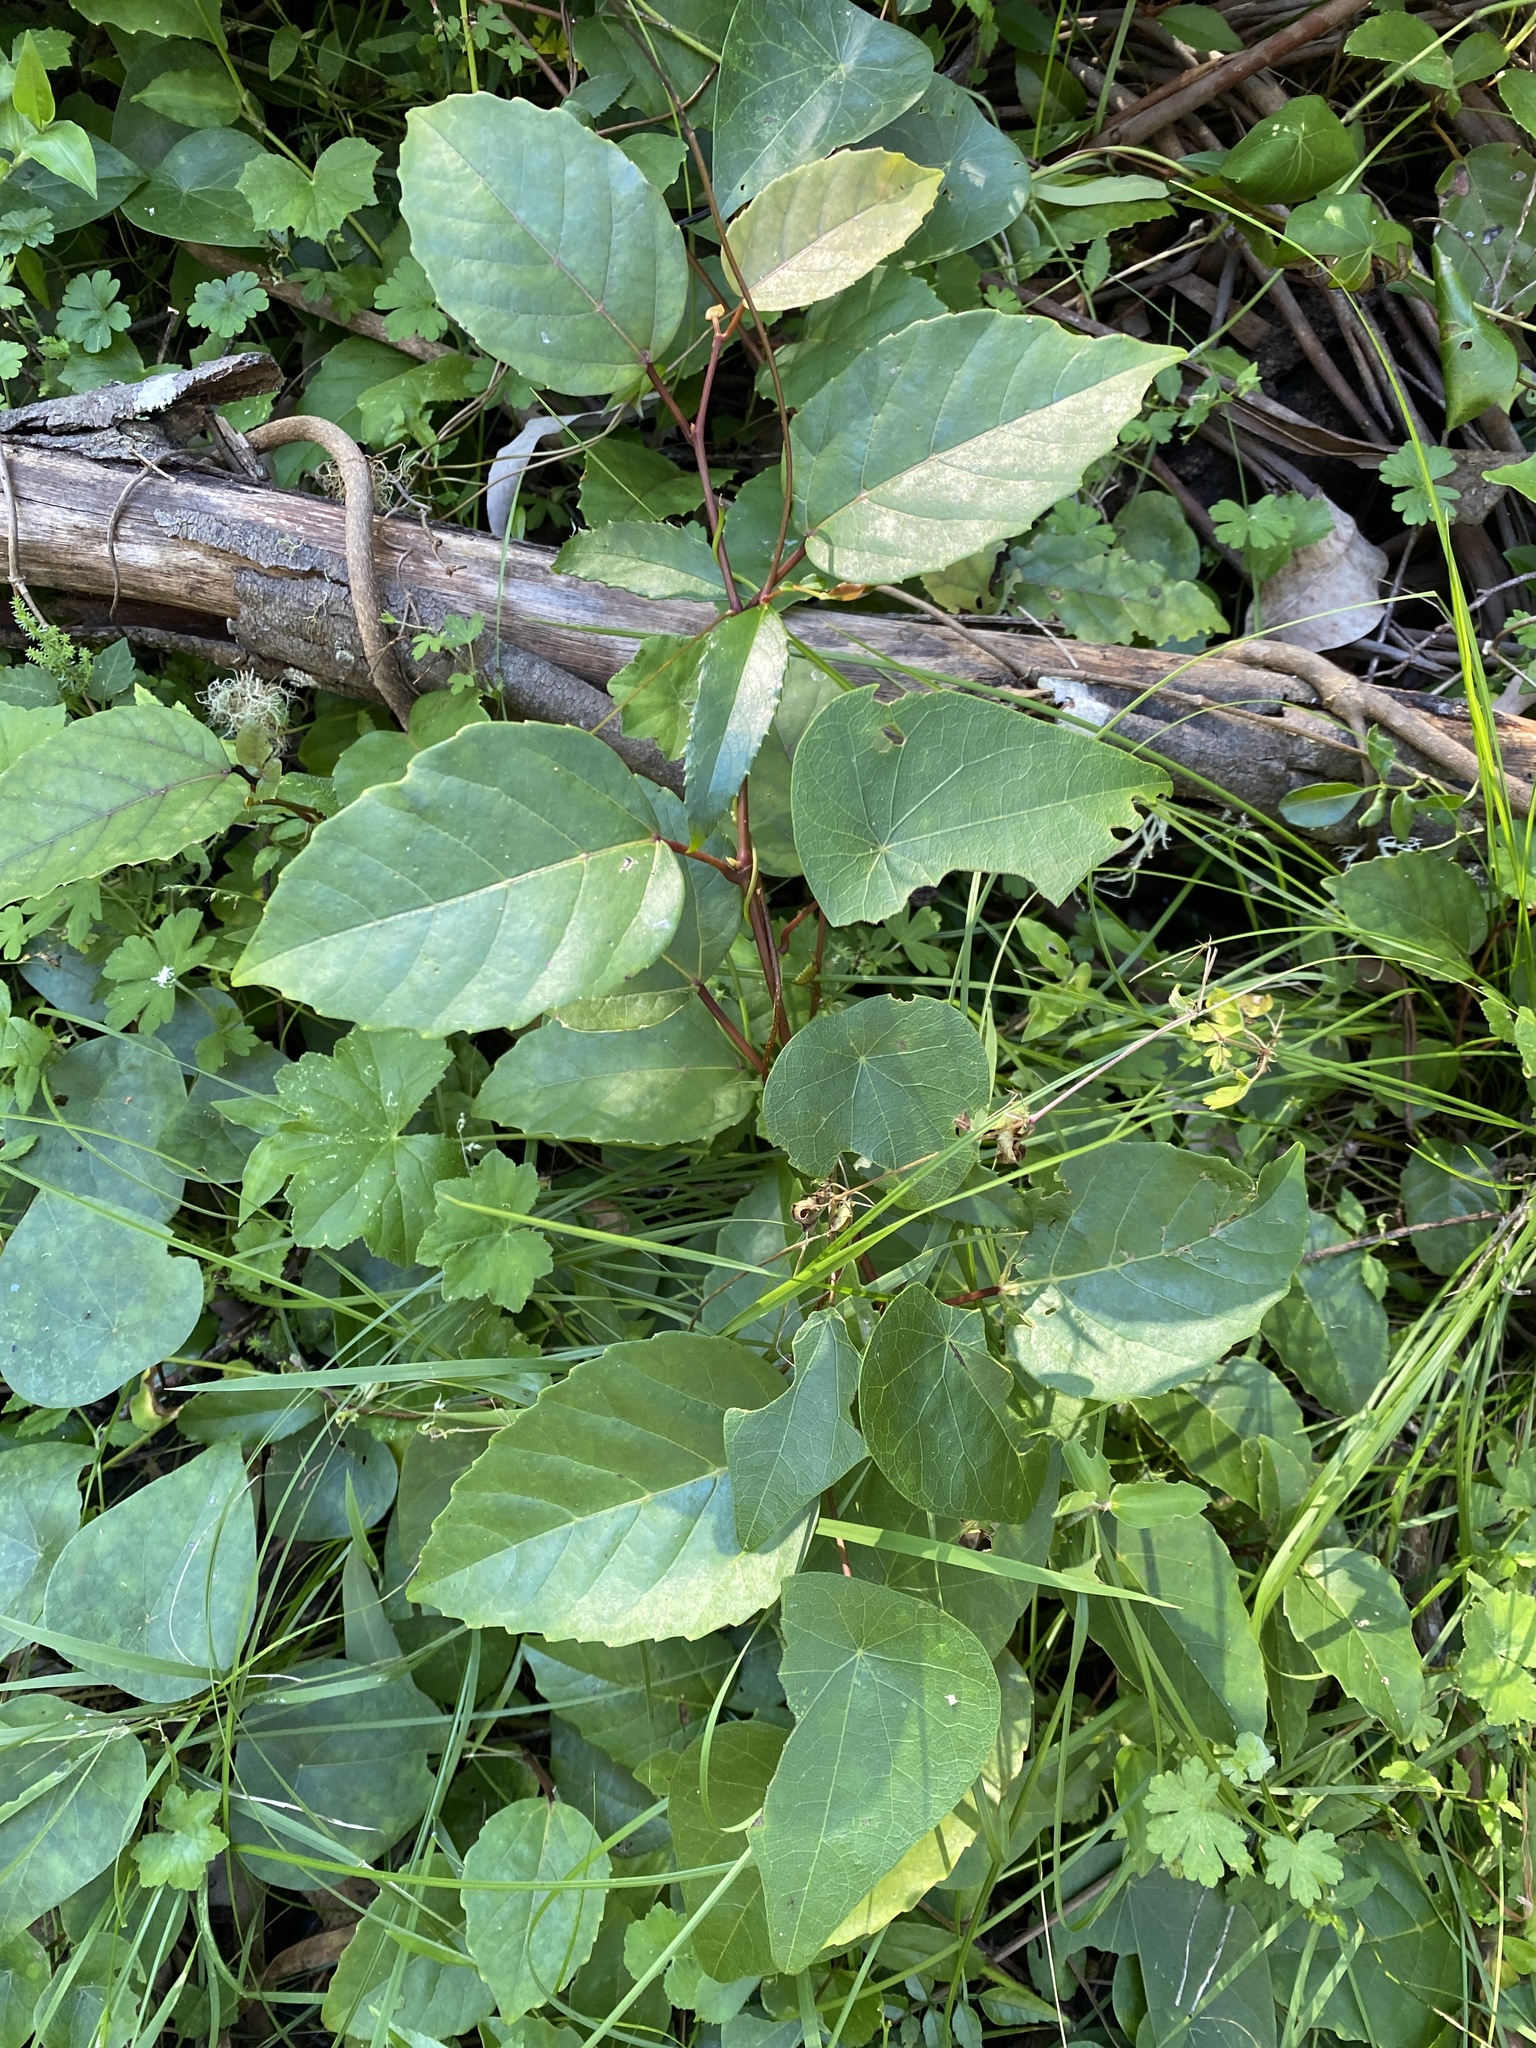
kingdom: Plantae
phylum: Tracheophyta
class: Magnoliopsida
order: Vitales
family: Vitaceae
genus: Cissus
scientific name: Cissus antarctica
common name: Kangaroo vine
